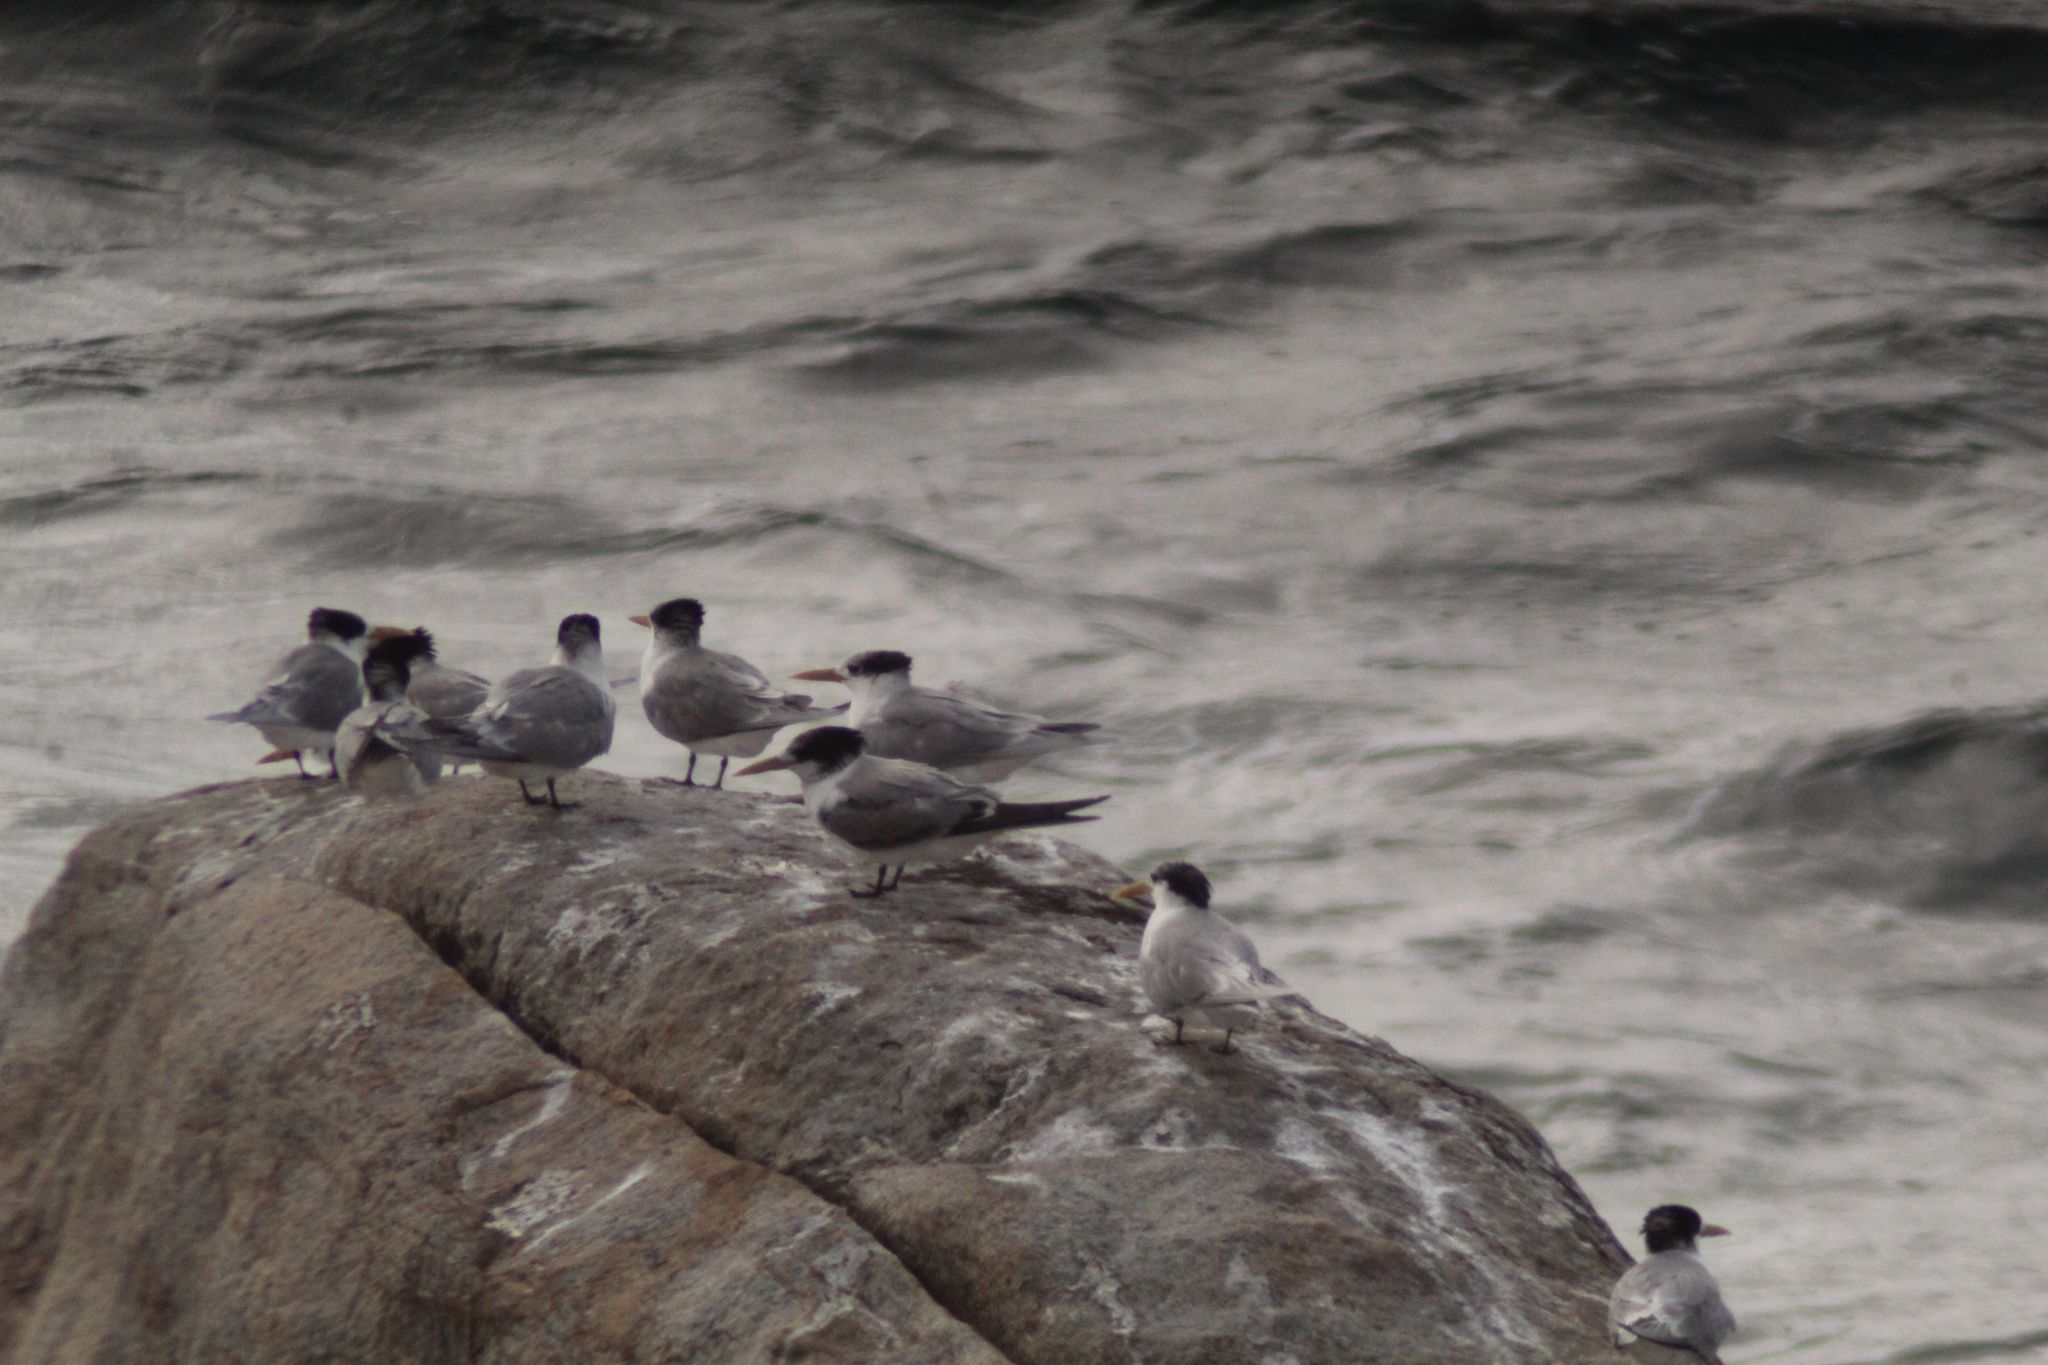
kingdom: Animalia
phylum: Chordata
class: Aves
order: Charadriiformes
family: Laridae
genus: Thalasseus
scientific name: Thalasseus bergii
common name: Greater crested tern
